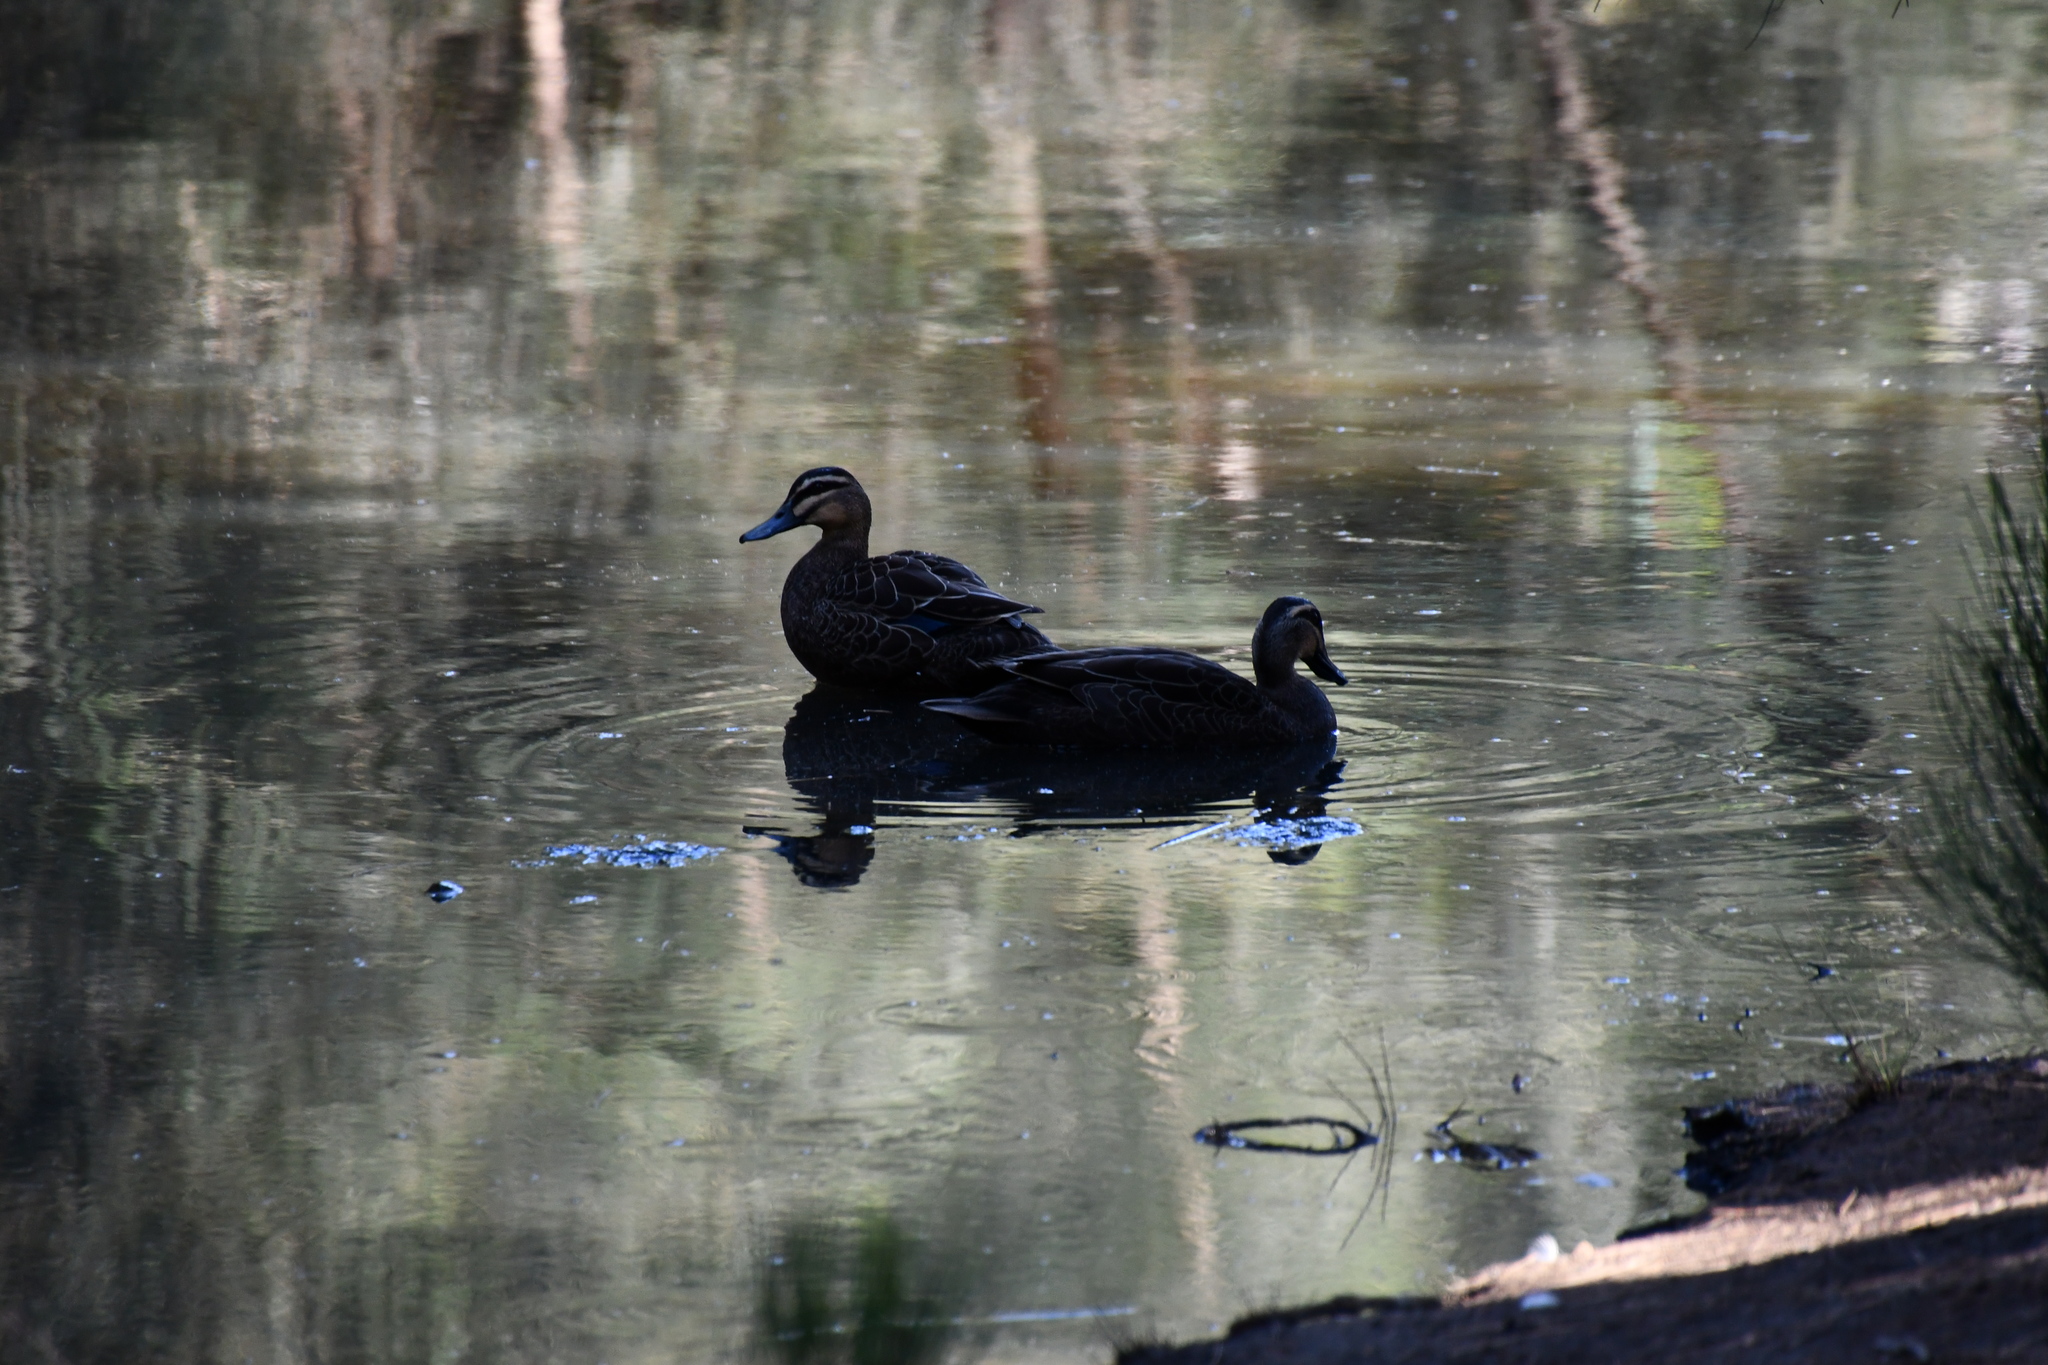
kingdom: Animalia
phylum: Chordata
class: Aves
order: Anseriformes
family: Anatidae
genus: Anas
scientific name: Anas superciliosa
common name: Pacific black duck
